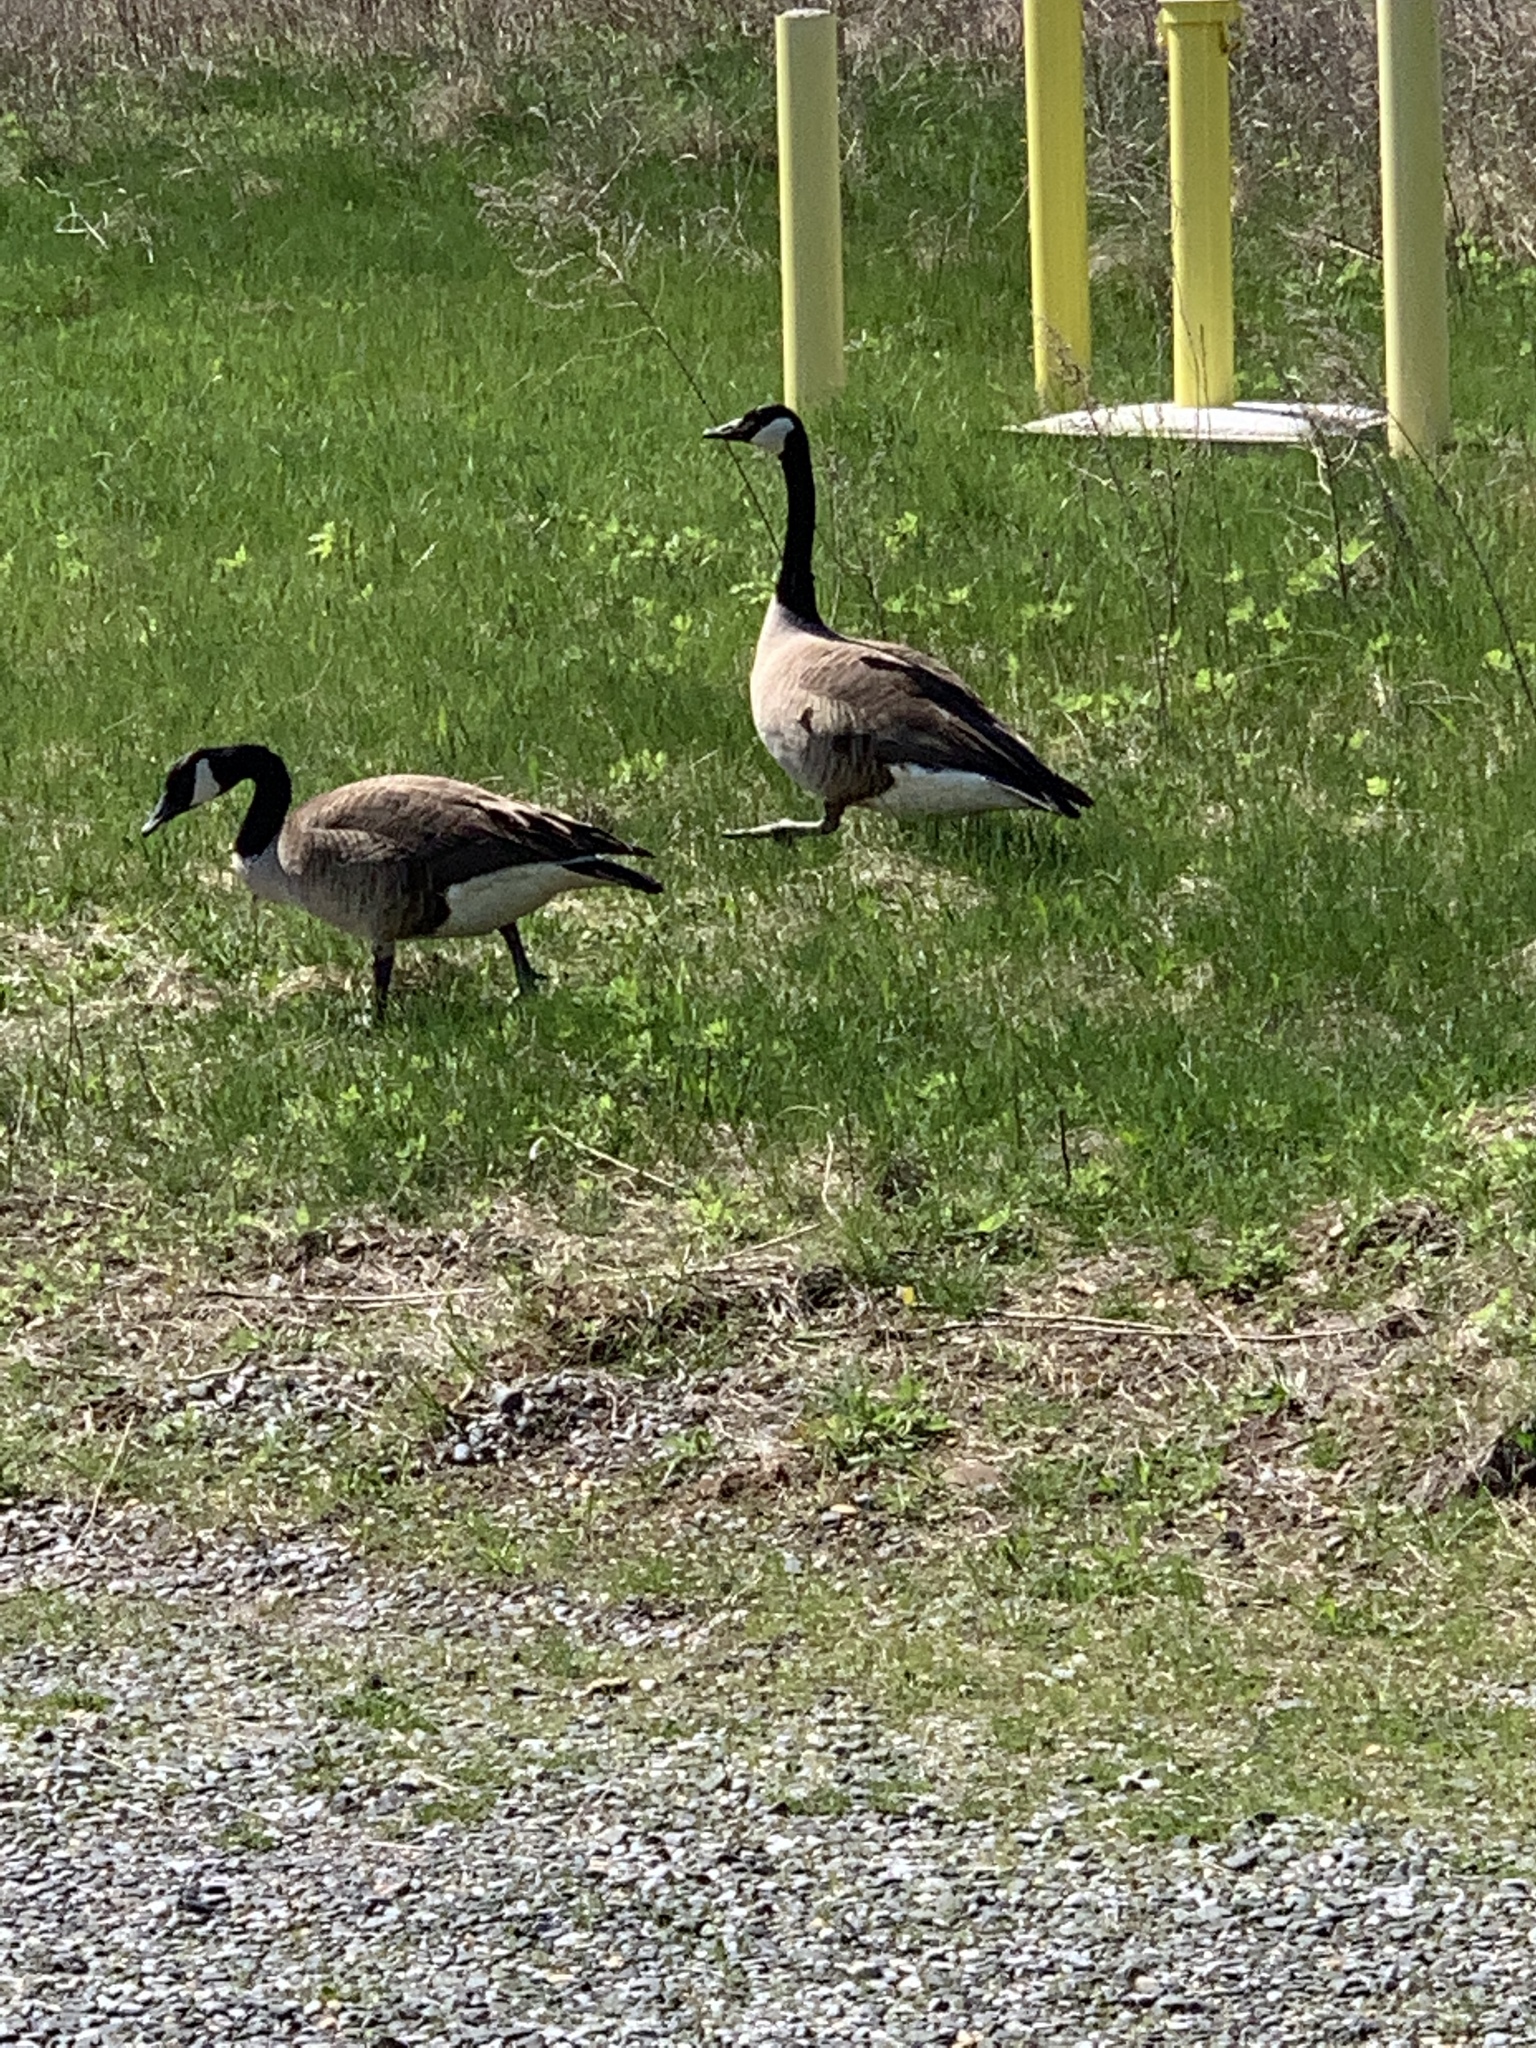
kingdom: Animalia
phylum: Chordata
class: Aves
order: Anseriformes
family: Anatidae
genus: Branta
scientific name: Branta canadensis
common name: Canada goose
